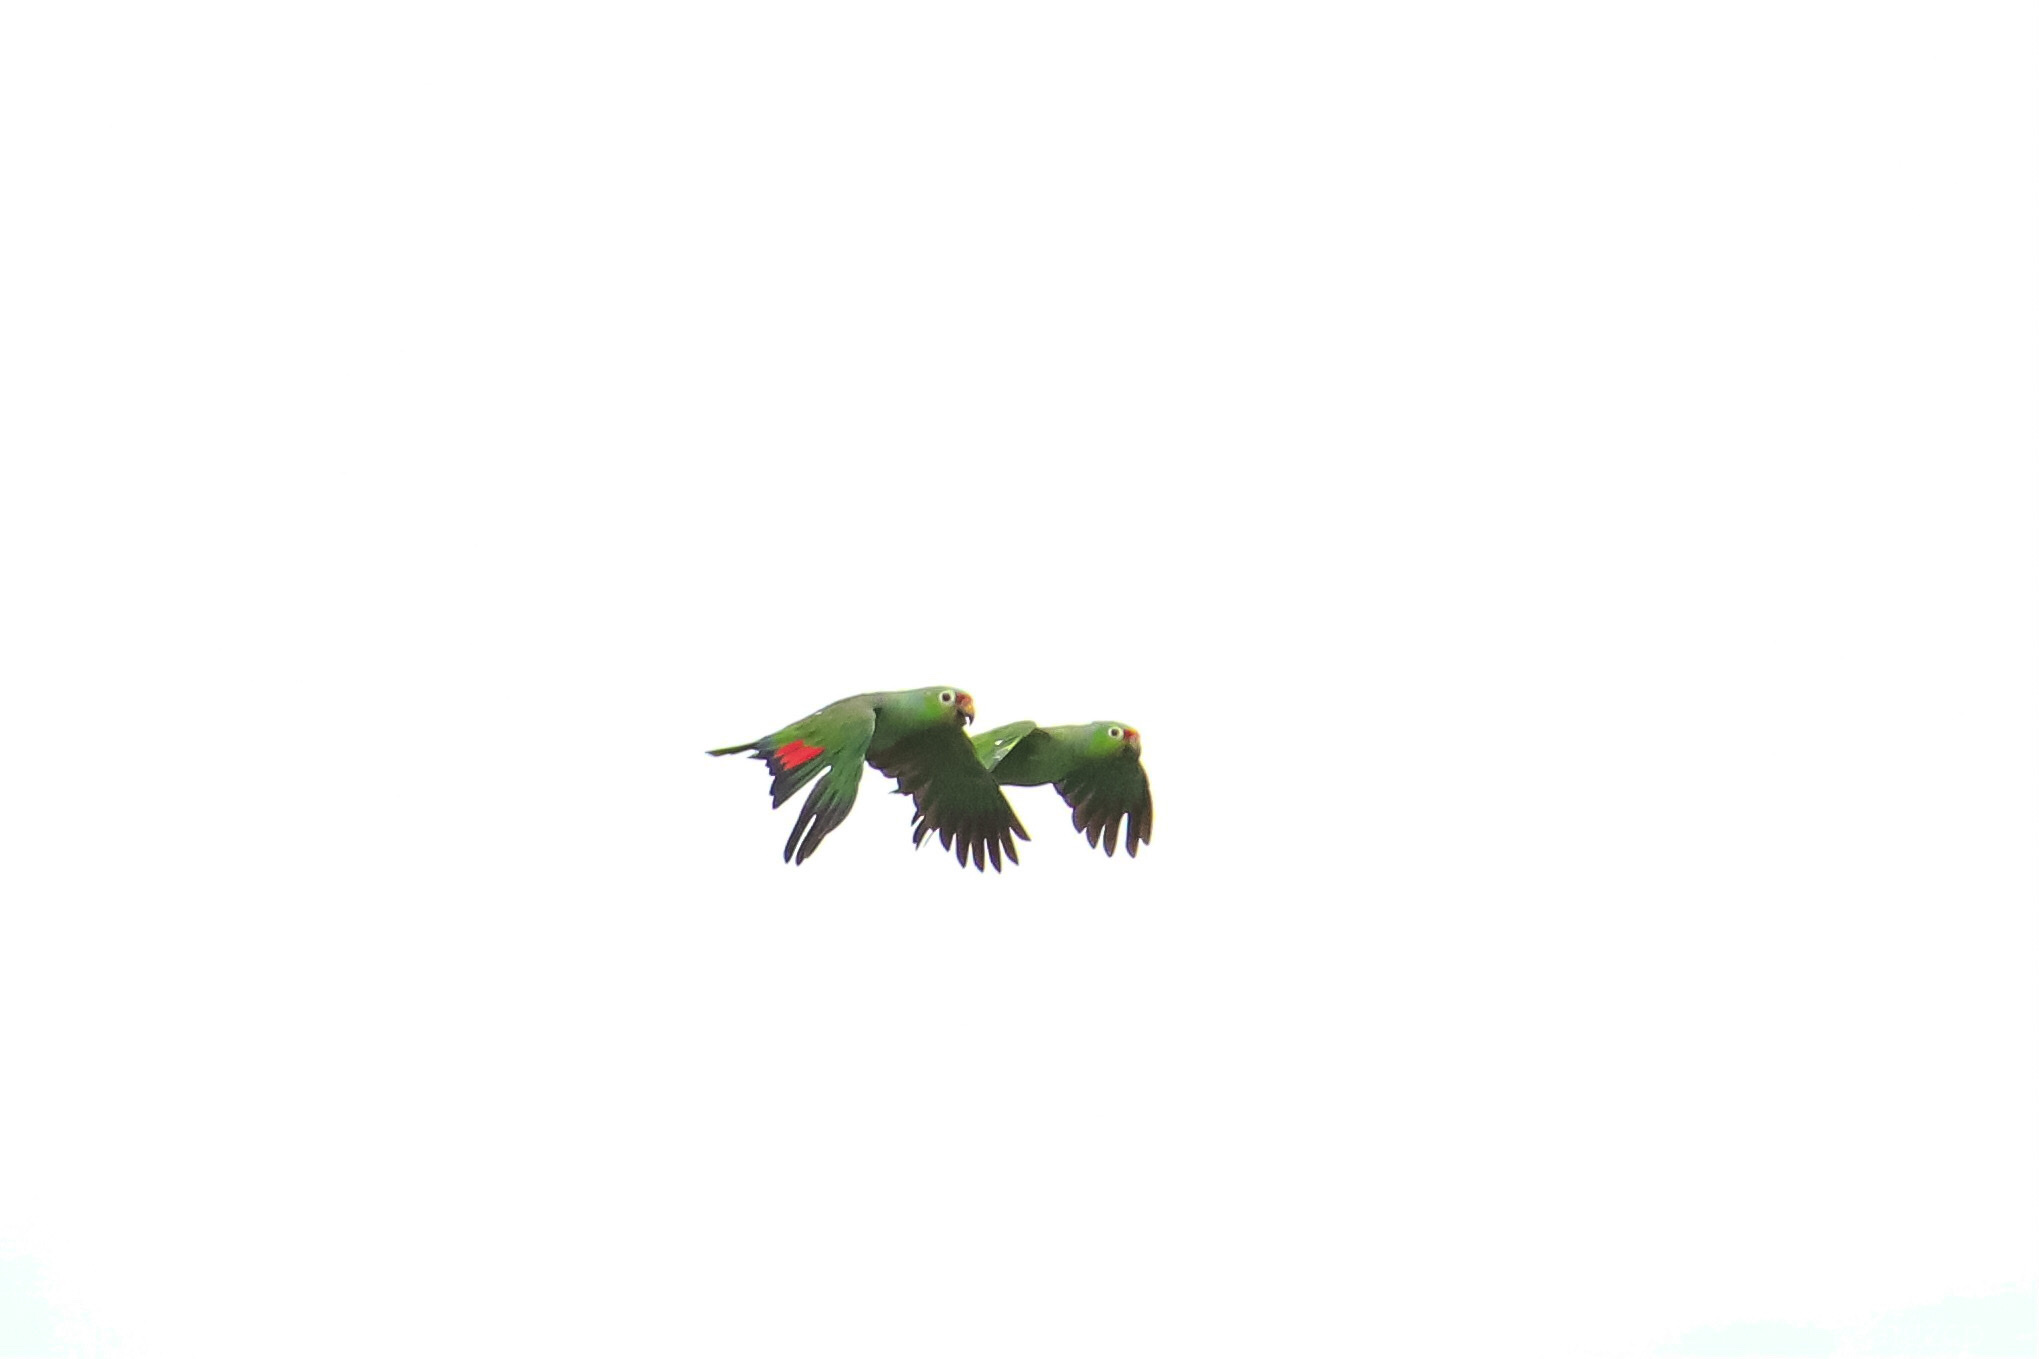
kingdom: Animalia
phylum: Chordata
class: Aves
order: Psittaciformes
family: Psittacidae
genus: Amazona
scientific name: Amazona autumnalis
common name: Red-lored amazon
